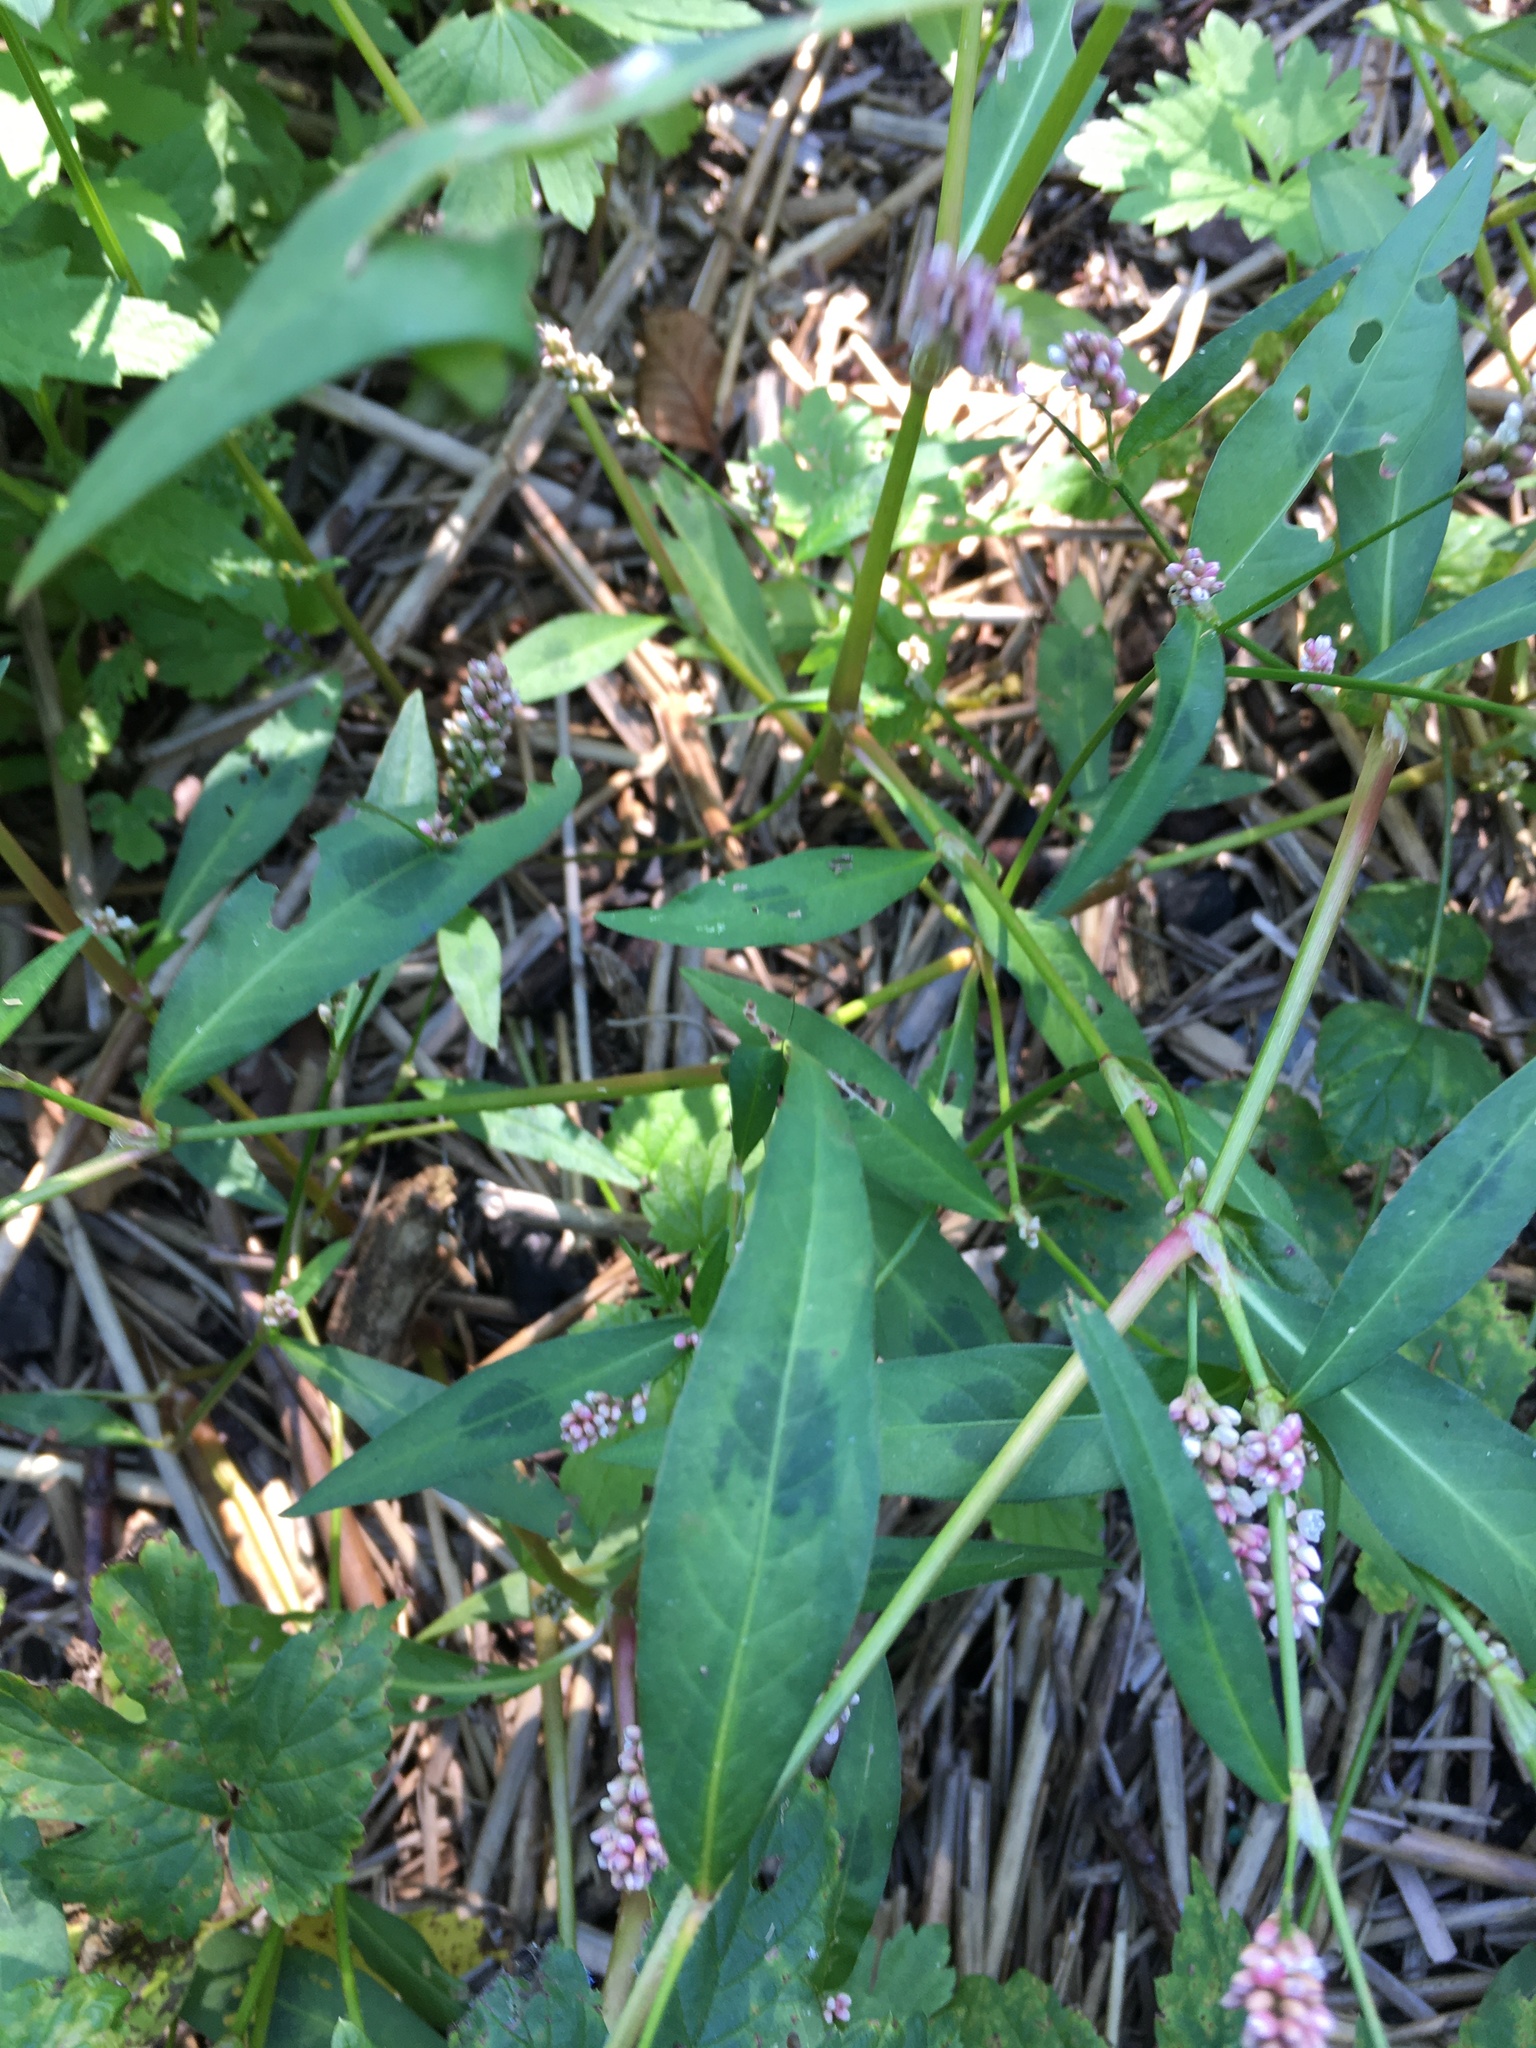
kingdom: Plantae
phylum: Tracheophyta
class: Magnoliopsida
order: Caryophyllales
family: Polygonaceae
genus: Persicaria
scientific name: Persicaria maculosa
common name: Redshank
